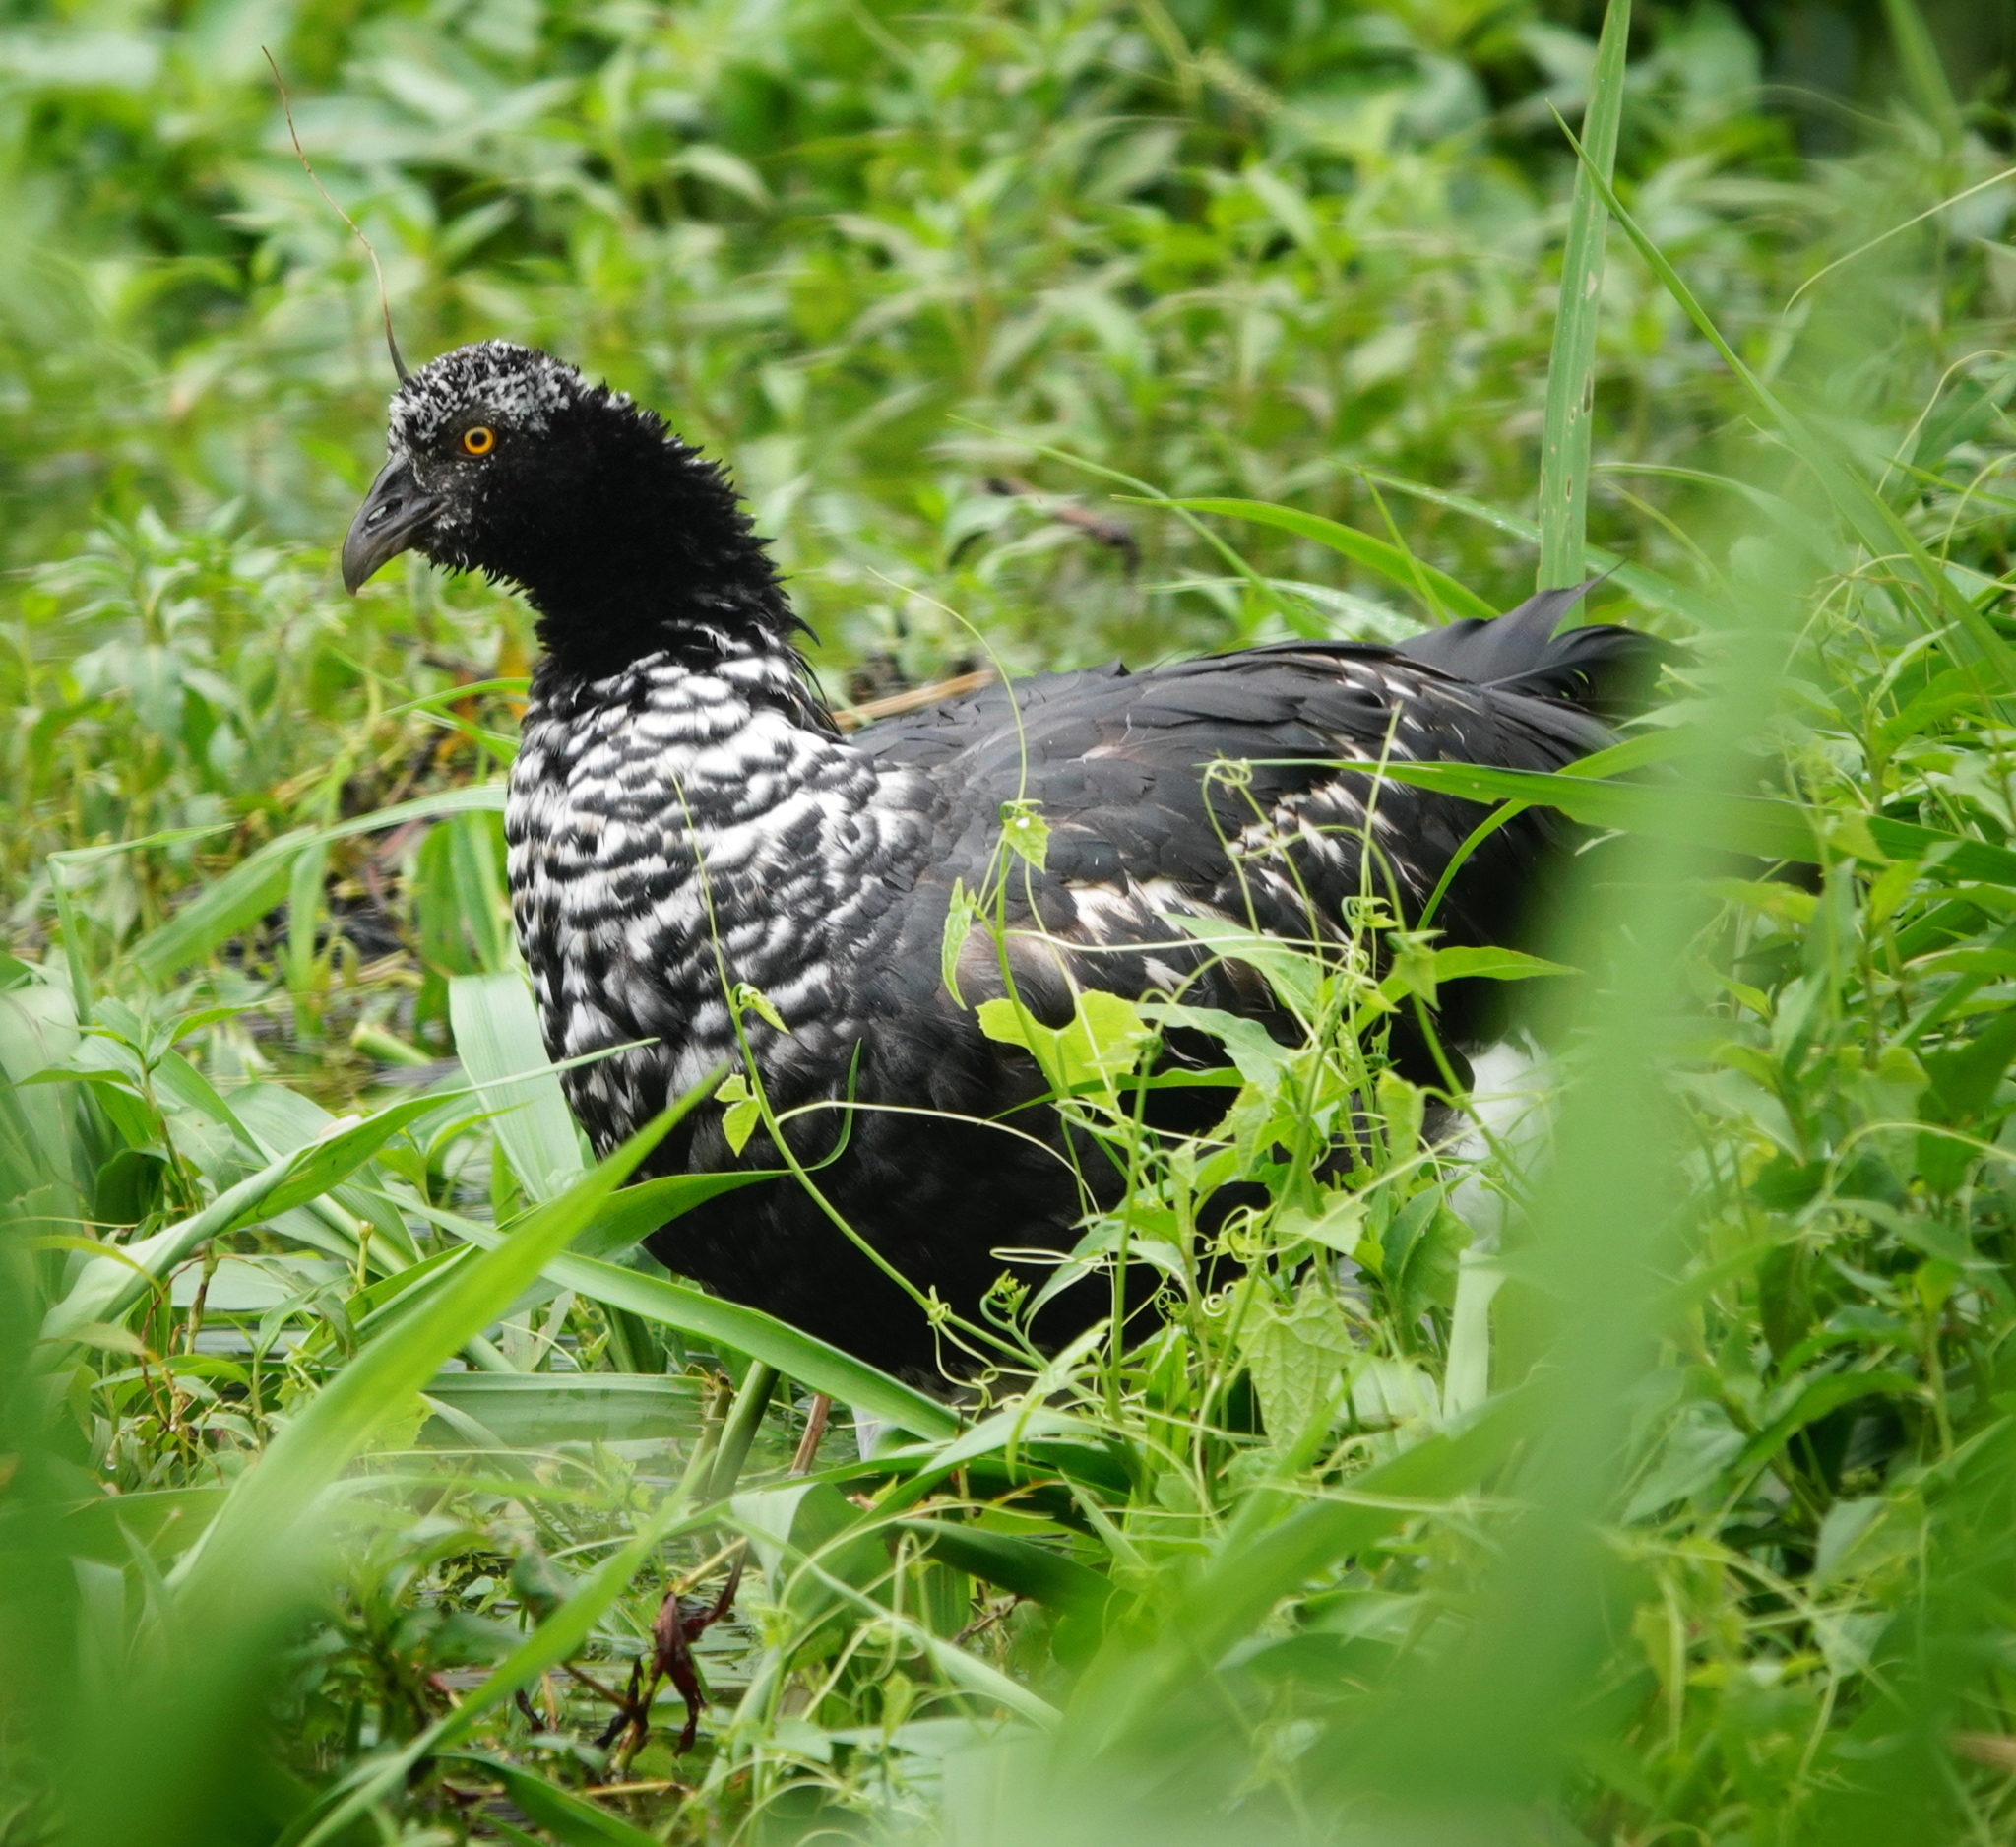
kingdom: Animalia
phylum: Chordata
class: Aves
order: Anseriformes
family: Anhimidae
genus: Anhima
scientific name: Anhima cornuta
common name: Horned screamer
